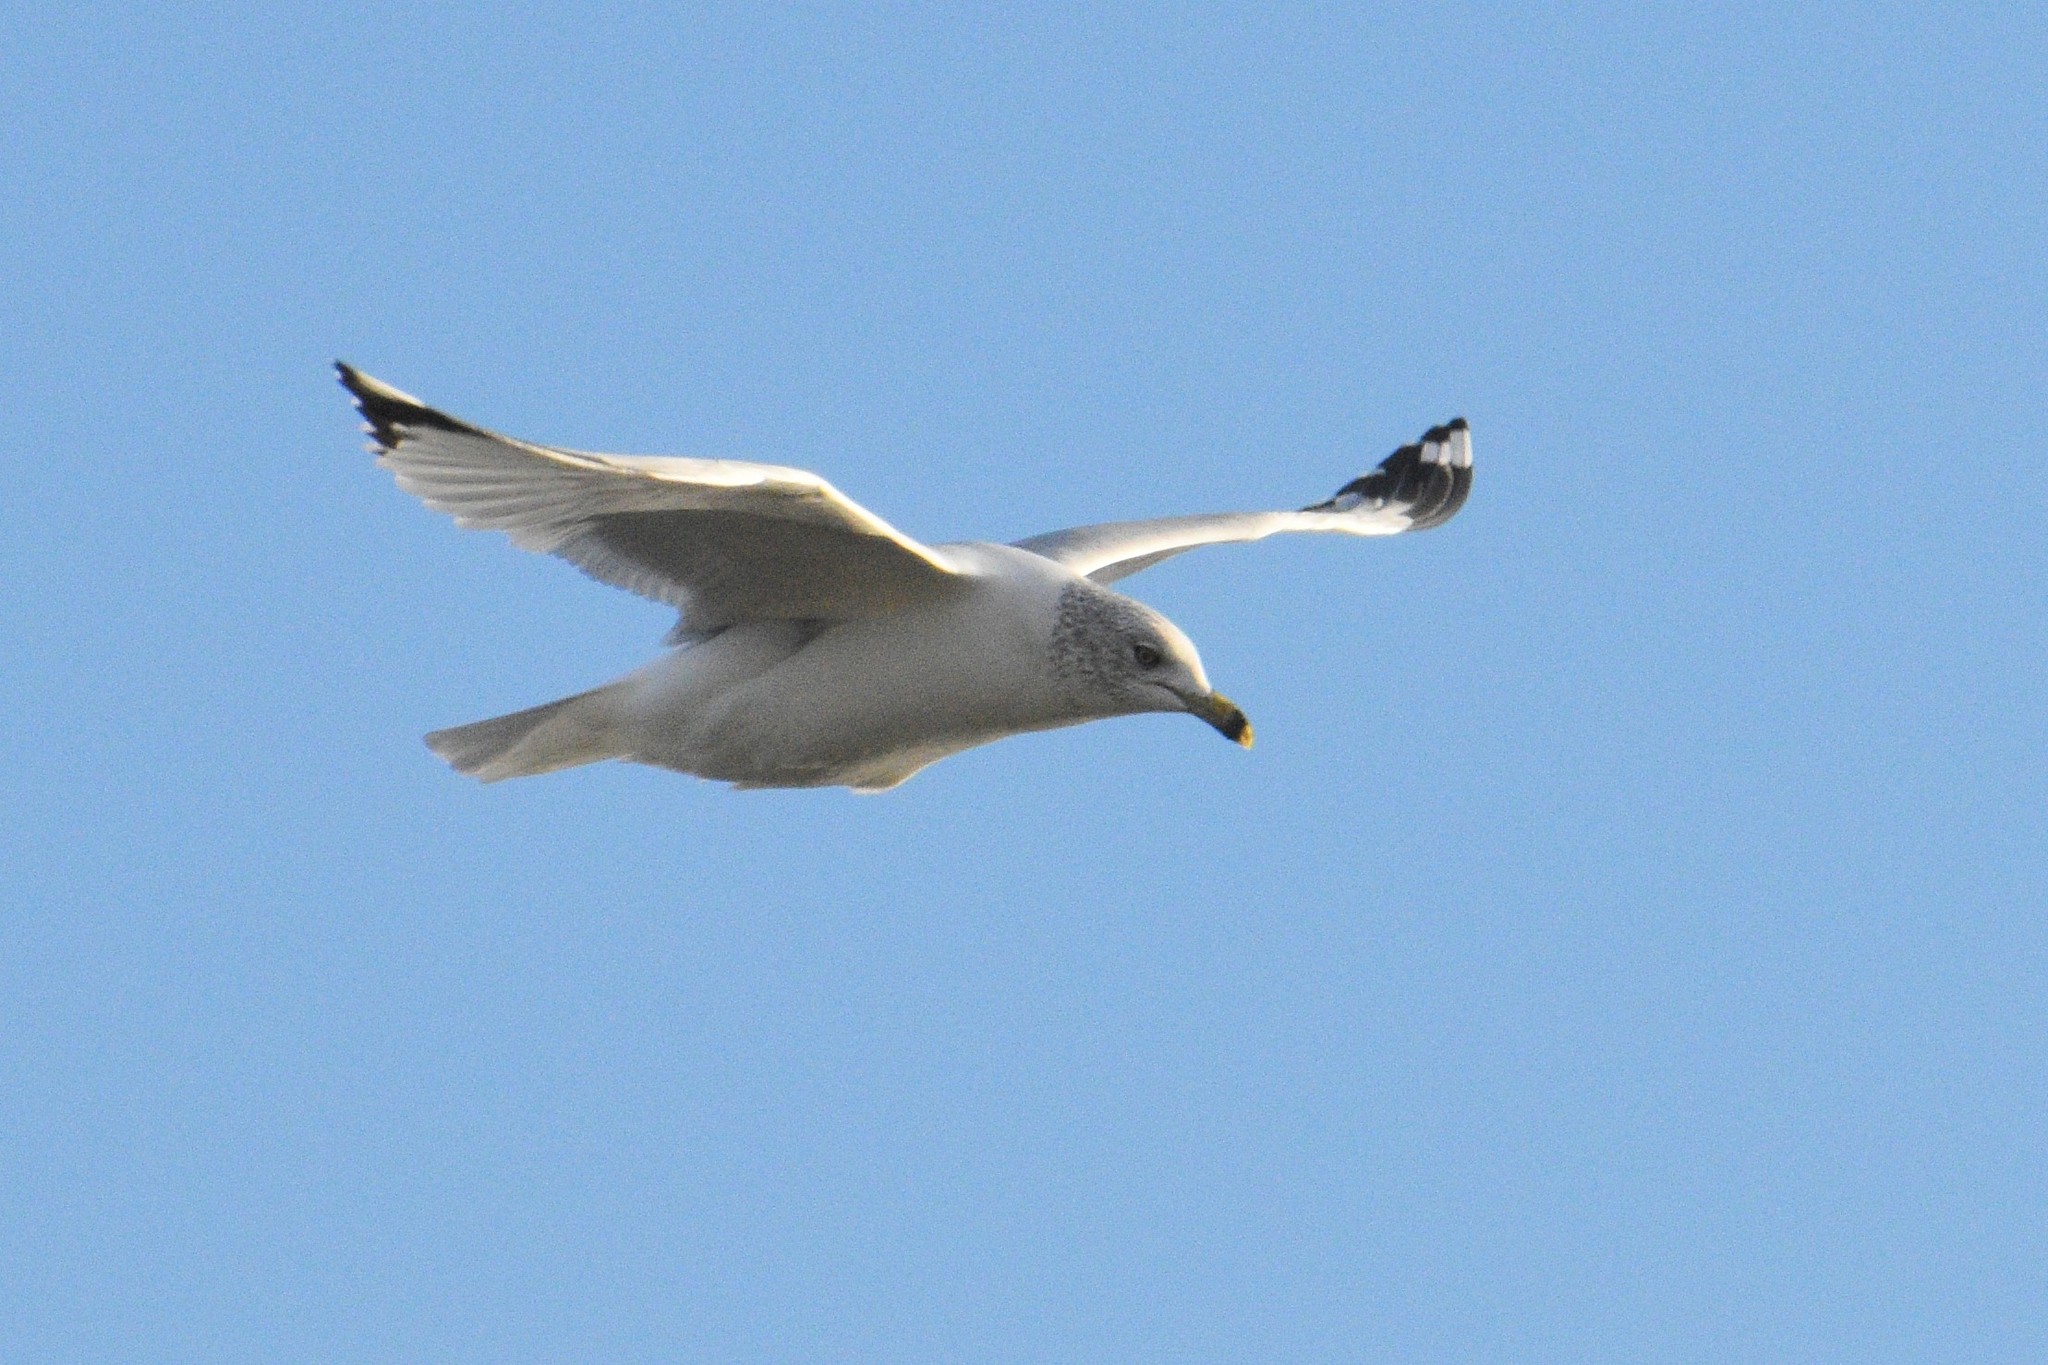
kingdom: Animalia
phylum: Chordata
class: Aves
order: Charadriiformes
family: Laridae
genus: Larus
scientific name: Larus delawarensis
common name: Ring-billed gull
